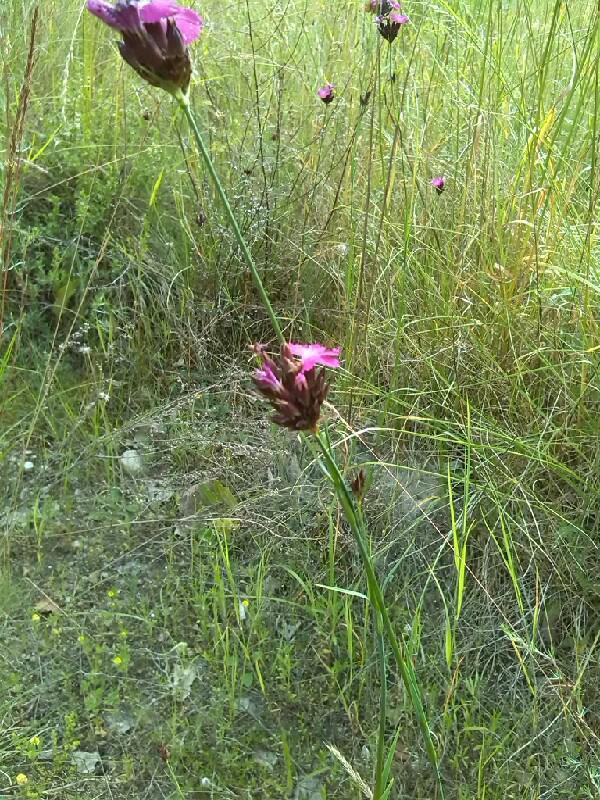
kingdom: Plantae
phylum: Tracheophyta
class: Magnoliopsida
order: Caryophyllales
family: Caryophyllaceae
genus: Dianthus
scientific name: Dianthus carthusianorum
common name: Carthusian pink
